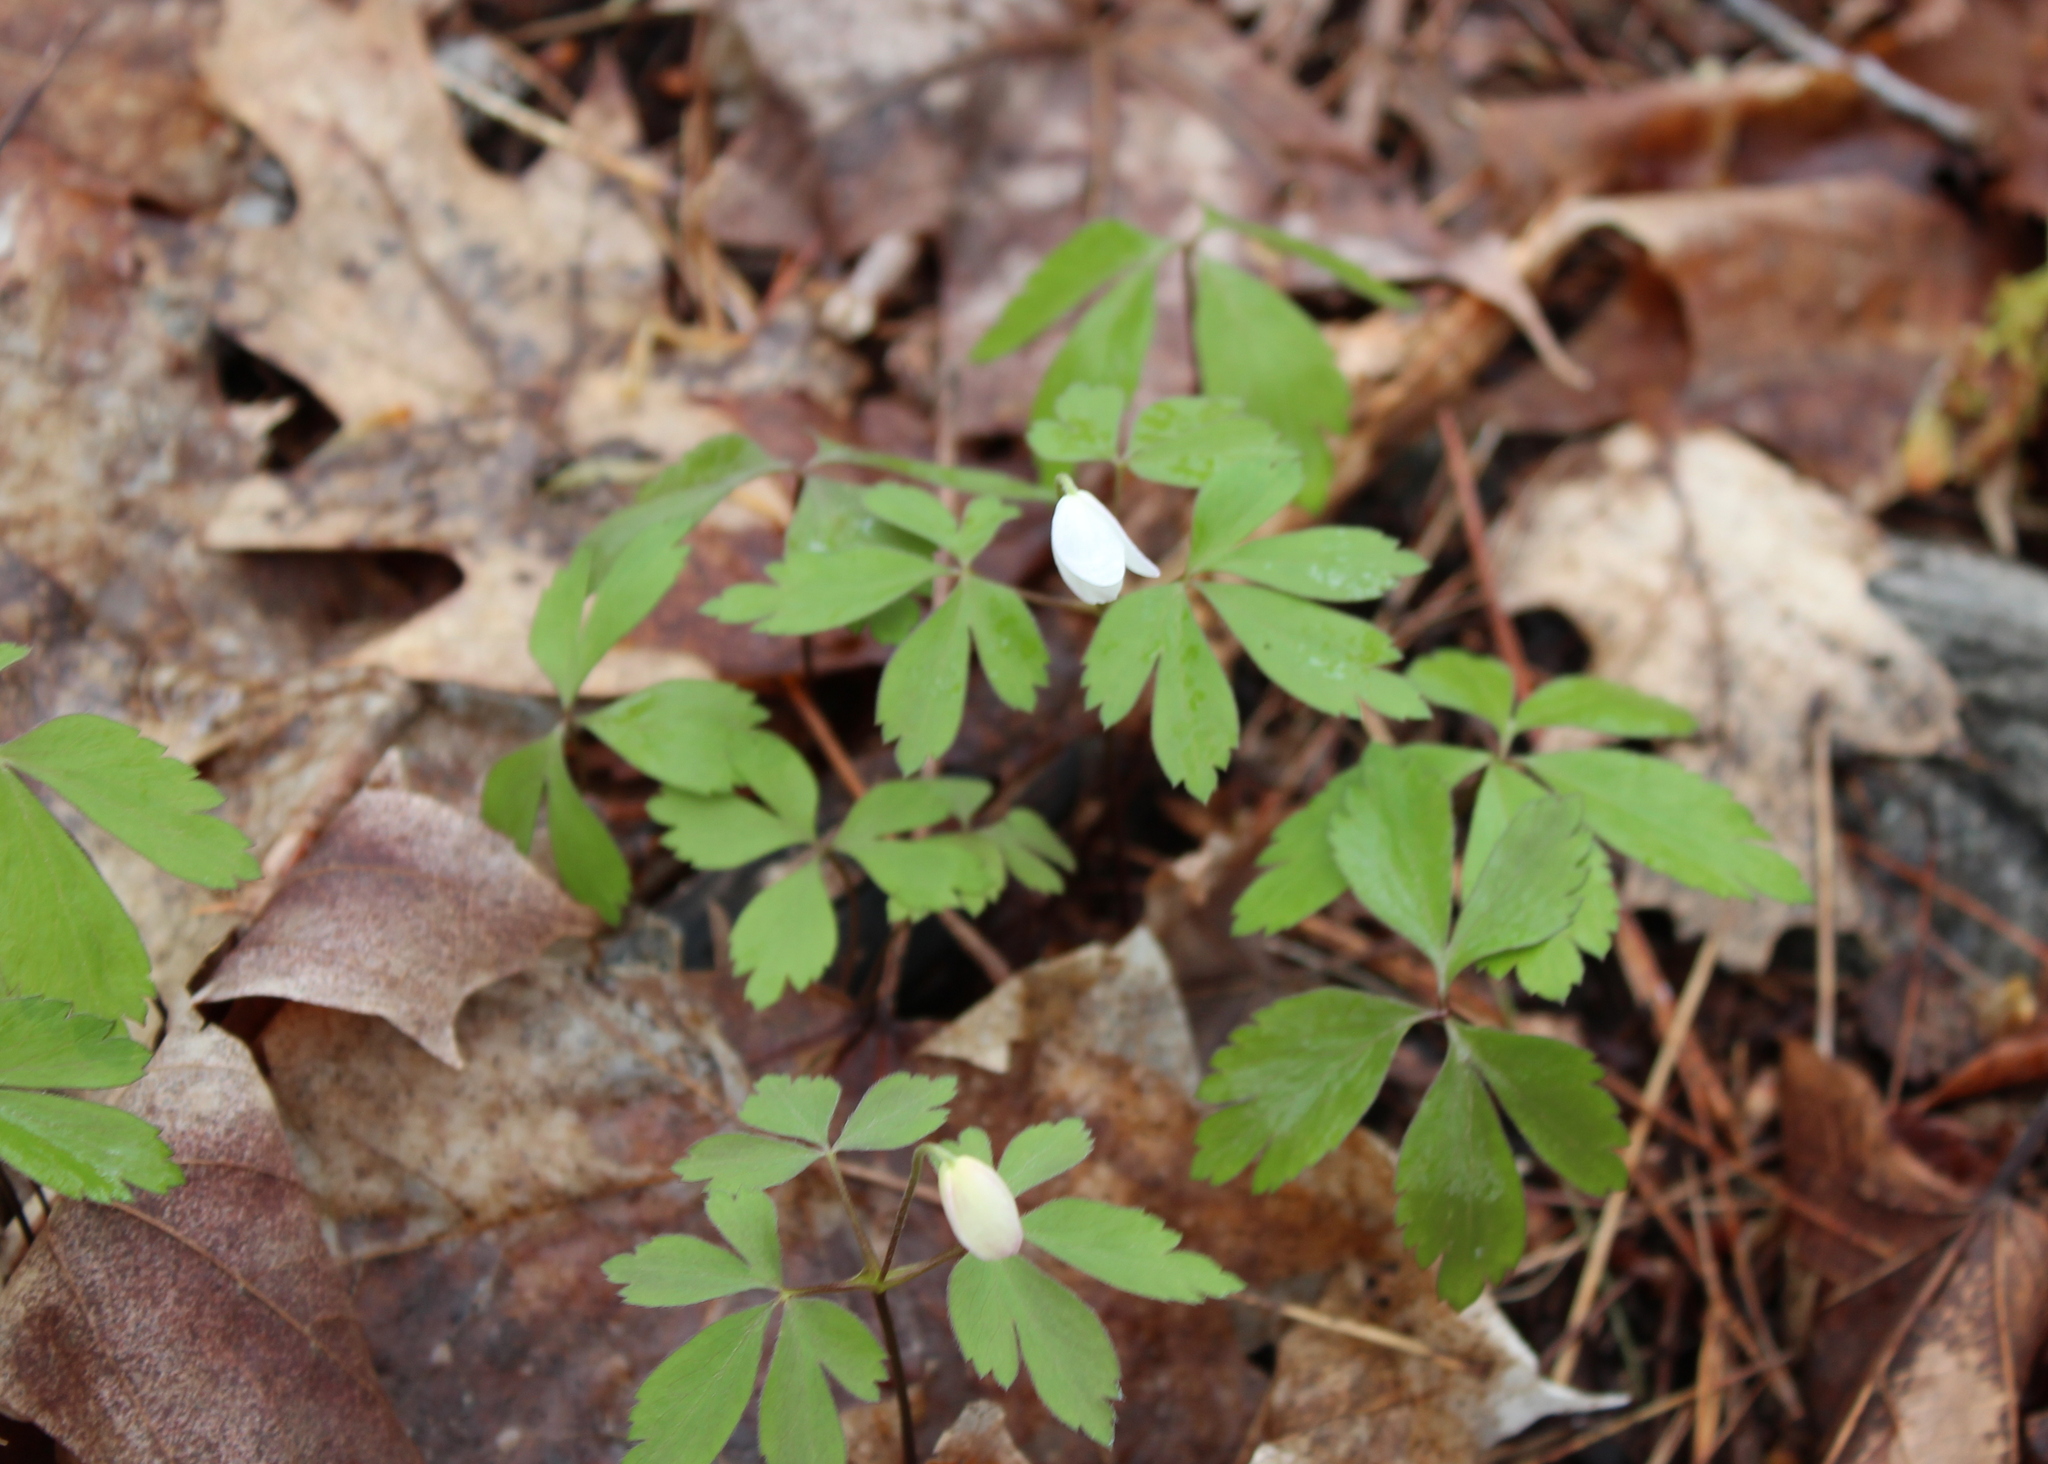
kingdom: Plantae
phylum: Tracheophyta
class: Magnoliopsida
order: Ranunculales
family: Ranunculaceae
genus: Anemone
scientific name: Anemone quinquefolia
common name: Wood anemone
